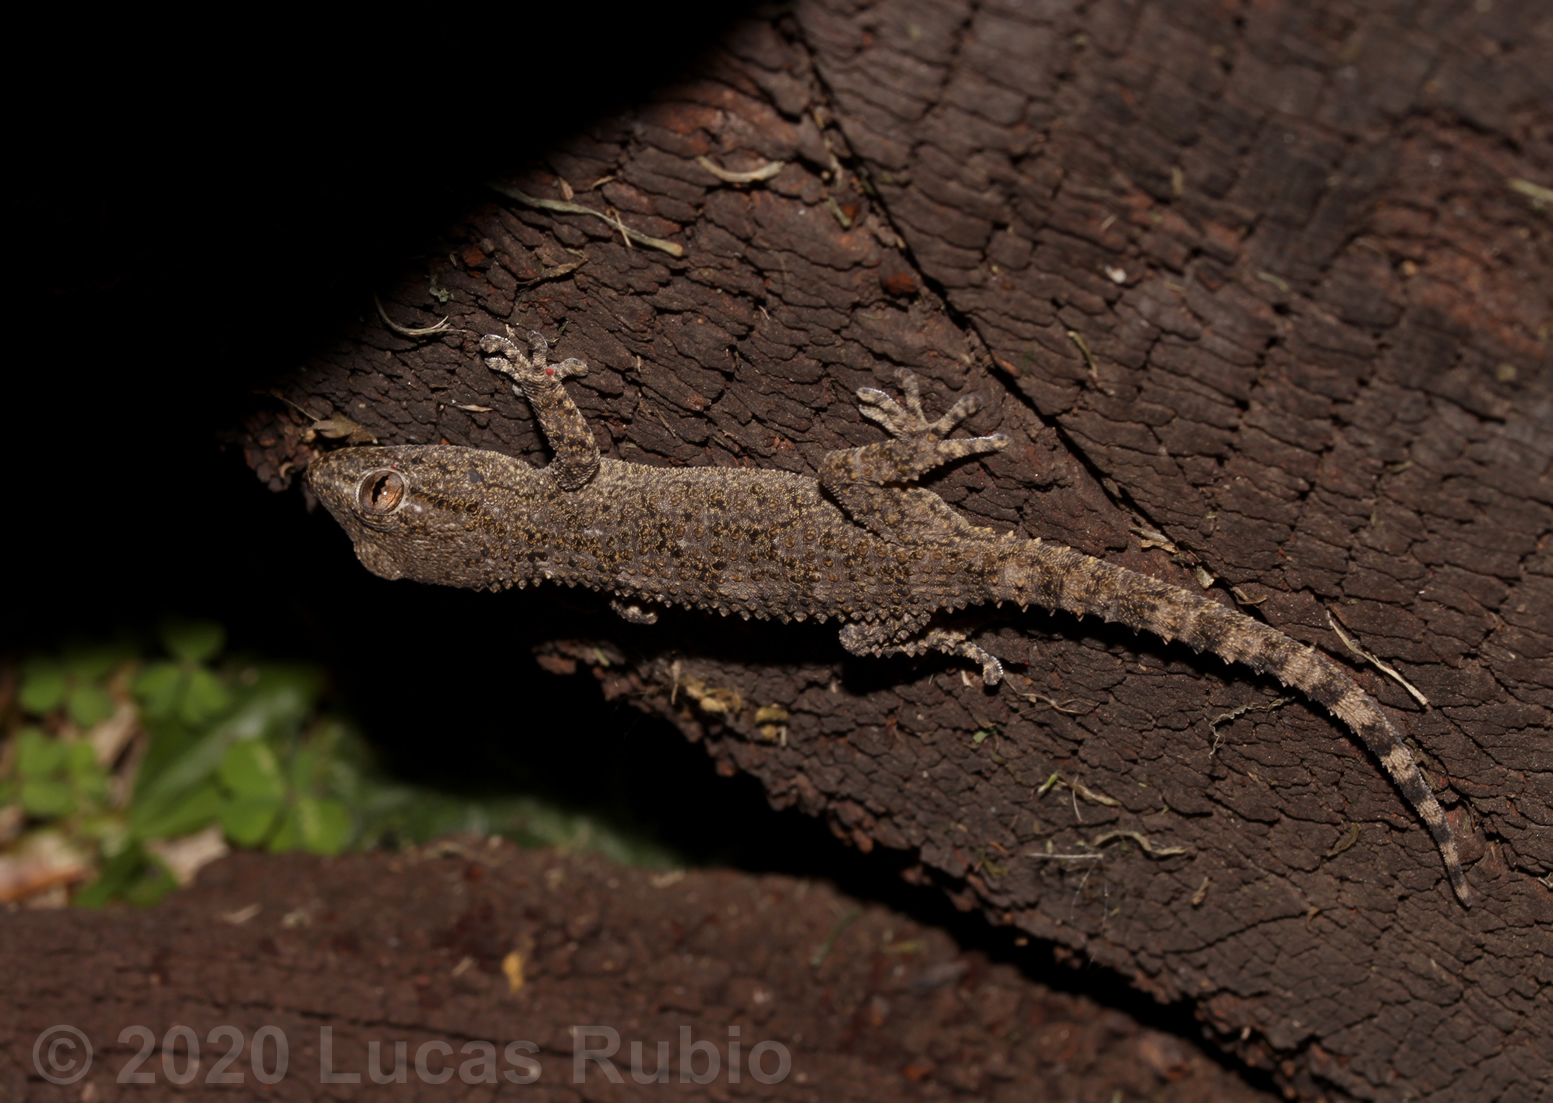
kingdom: Animalia
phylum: Chordata
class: Squamata
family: Phyllodactylidae
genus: Tarentola
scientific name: Tarentola mauritanica
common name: Moorish gecko
